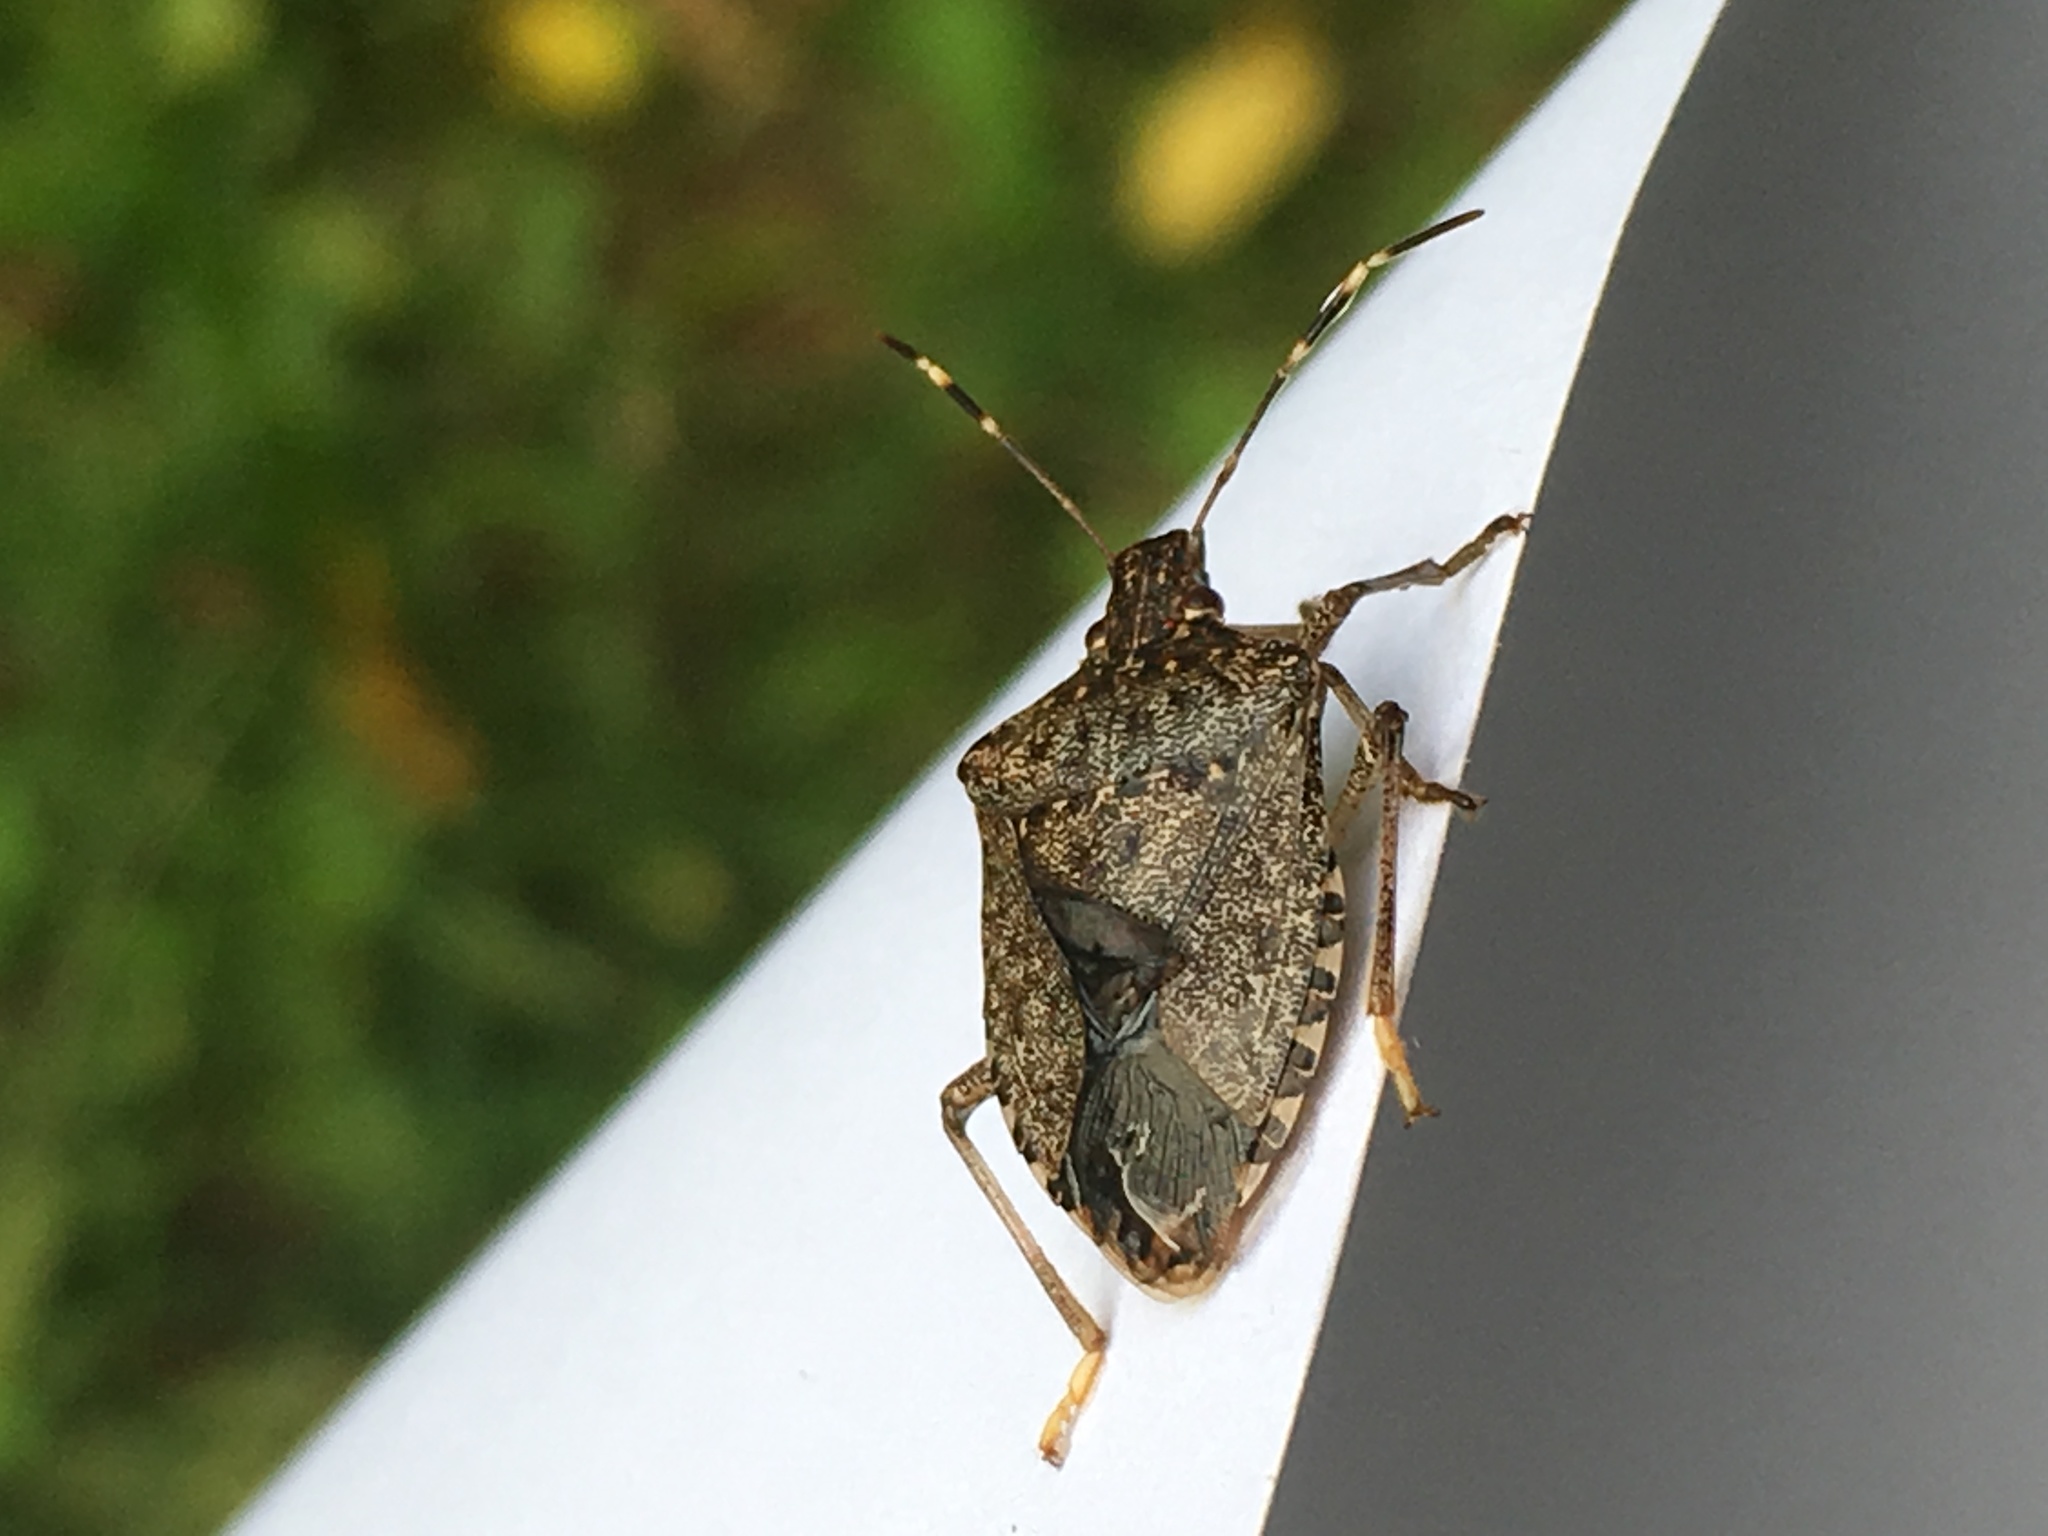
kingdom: Animalia
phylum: Arthropoda
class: Insecta
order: Hemiptera
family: Pentatomidae
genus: Halyomorpha
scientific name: Halyomorpha halys
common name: Brown marmorated stink bug
